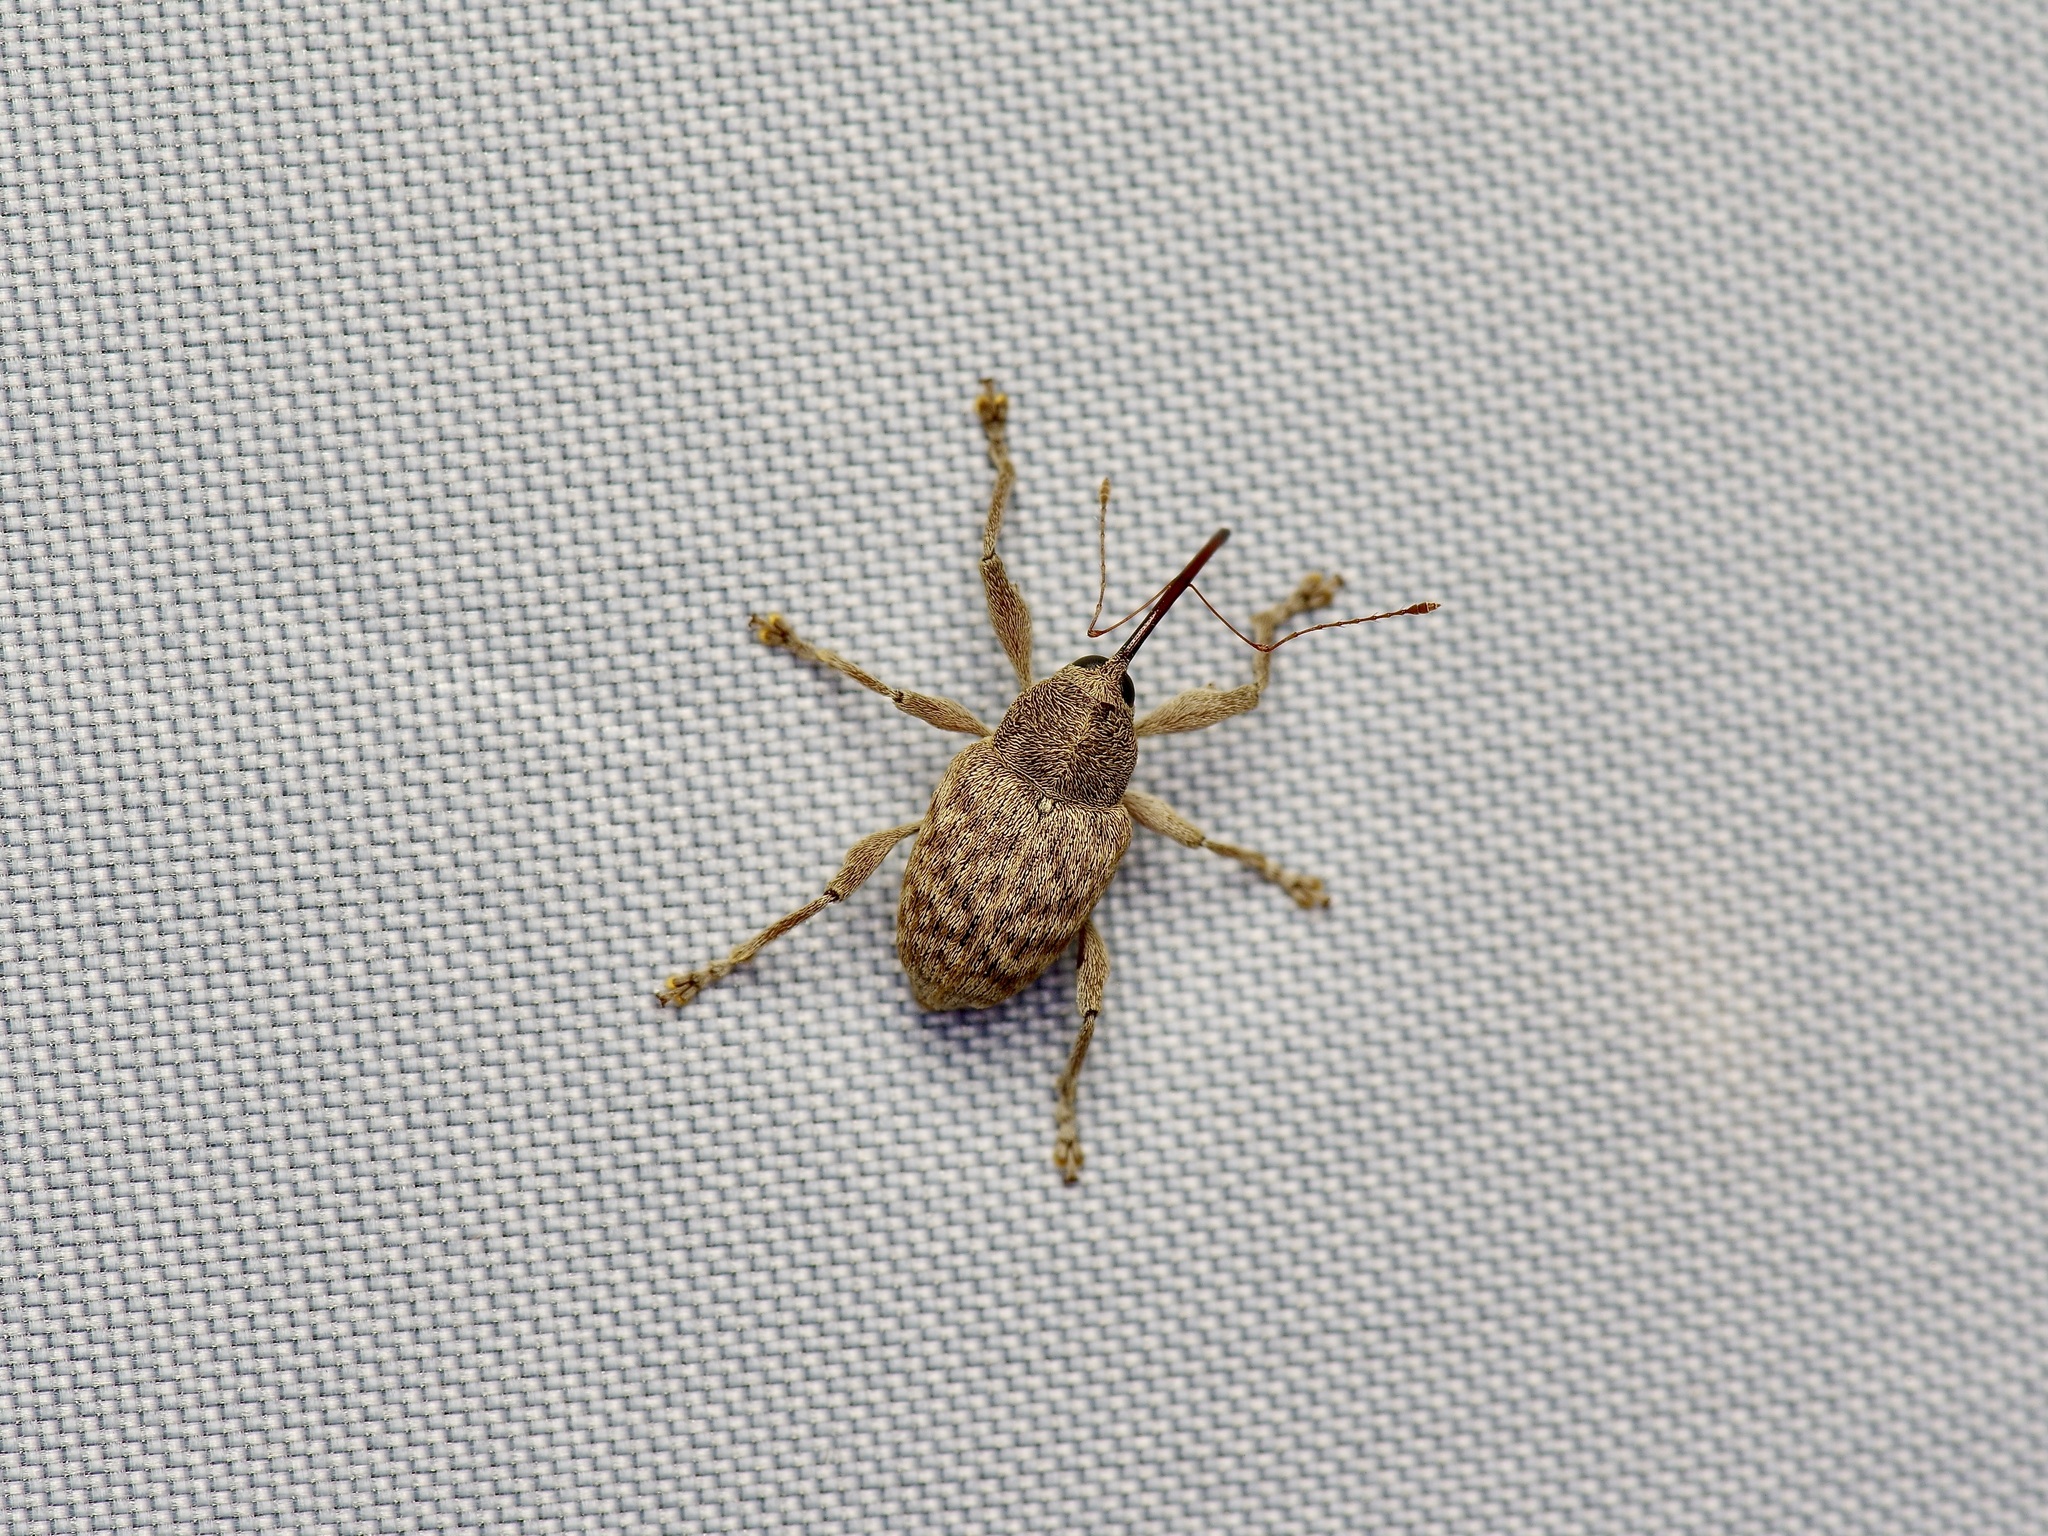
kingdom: Animalia
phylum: Arthropoda
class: Insecta
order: Coleoptera
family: Curculionidae
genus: Curculio
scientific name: Curculio
